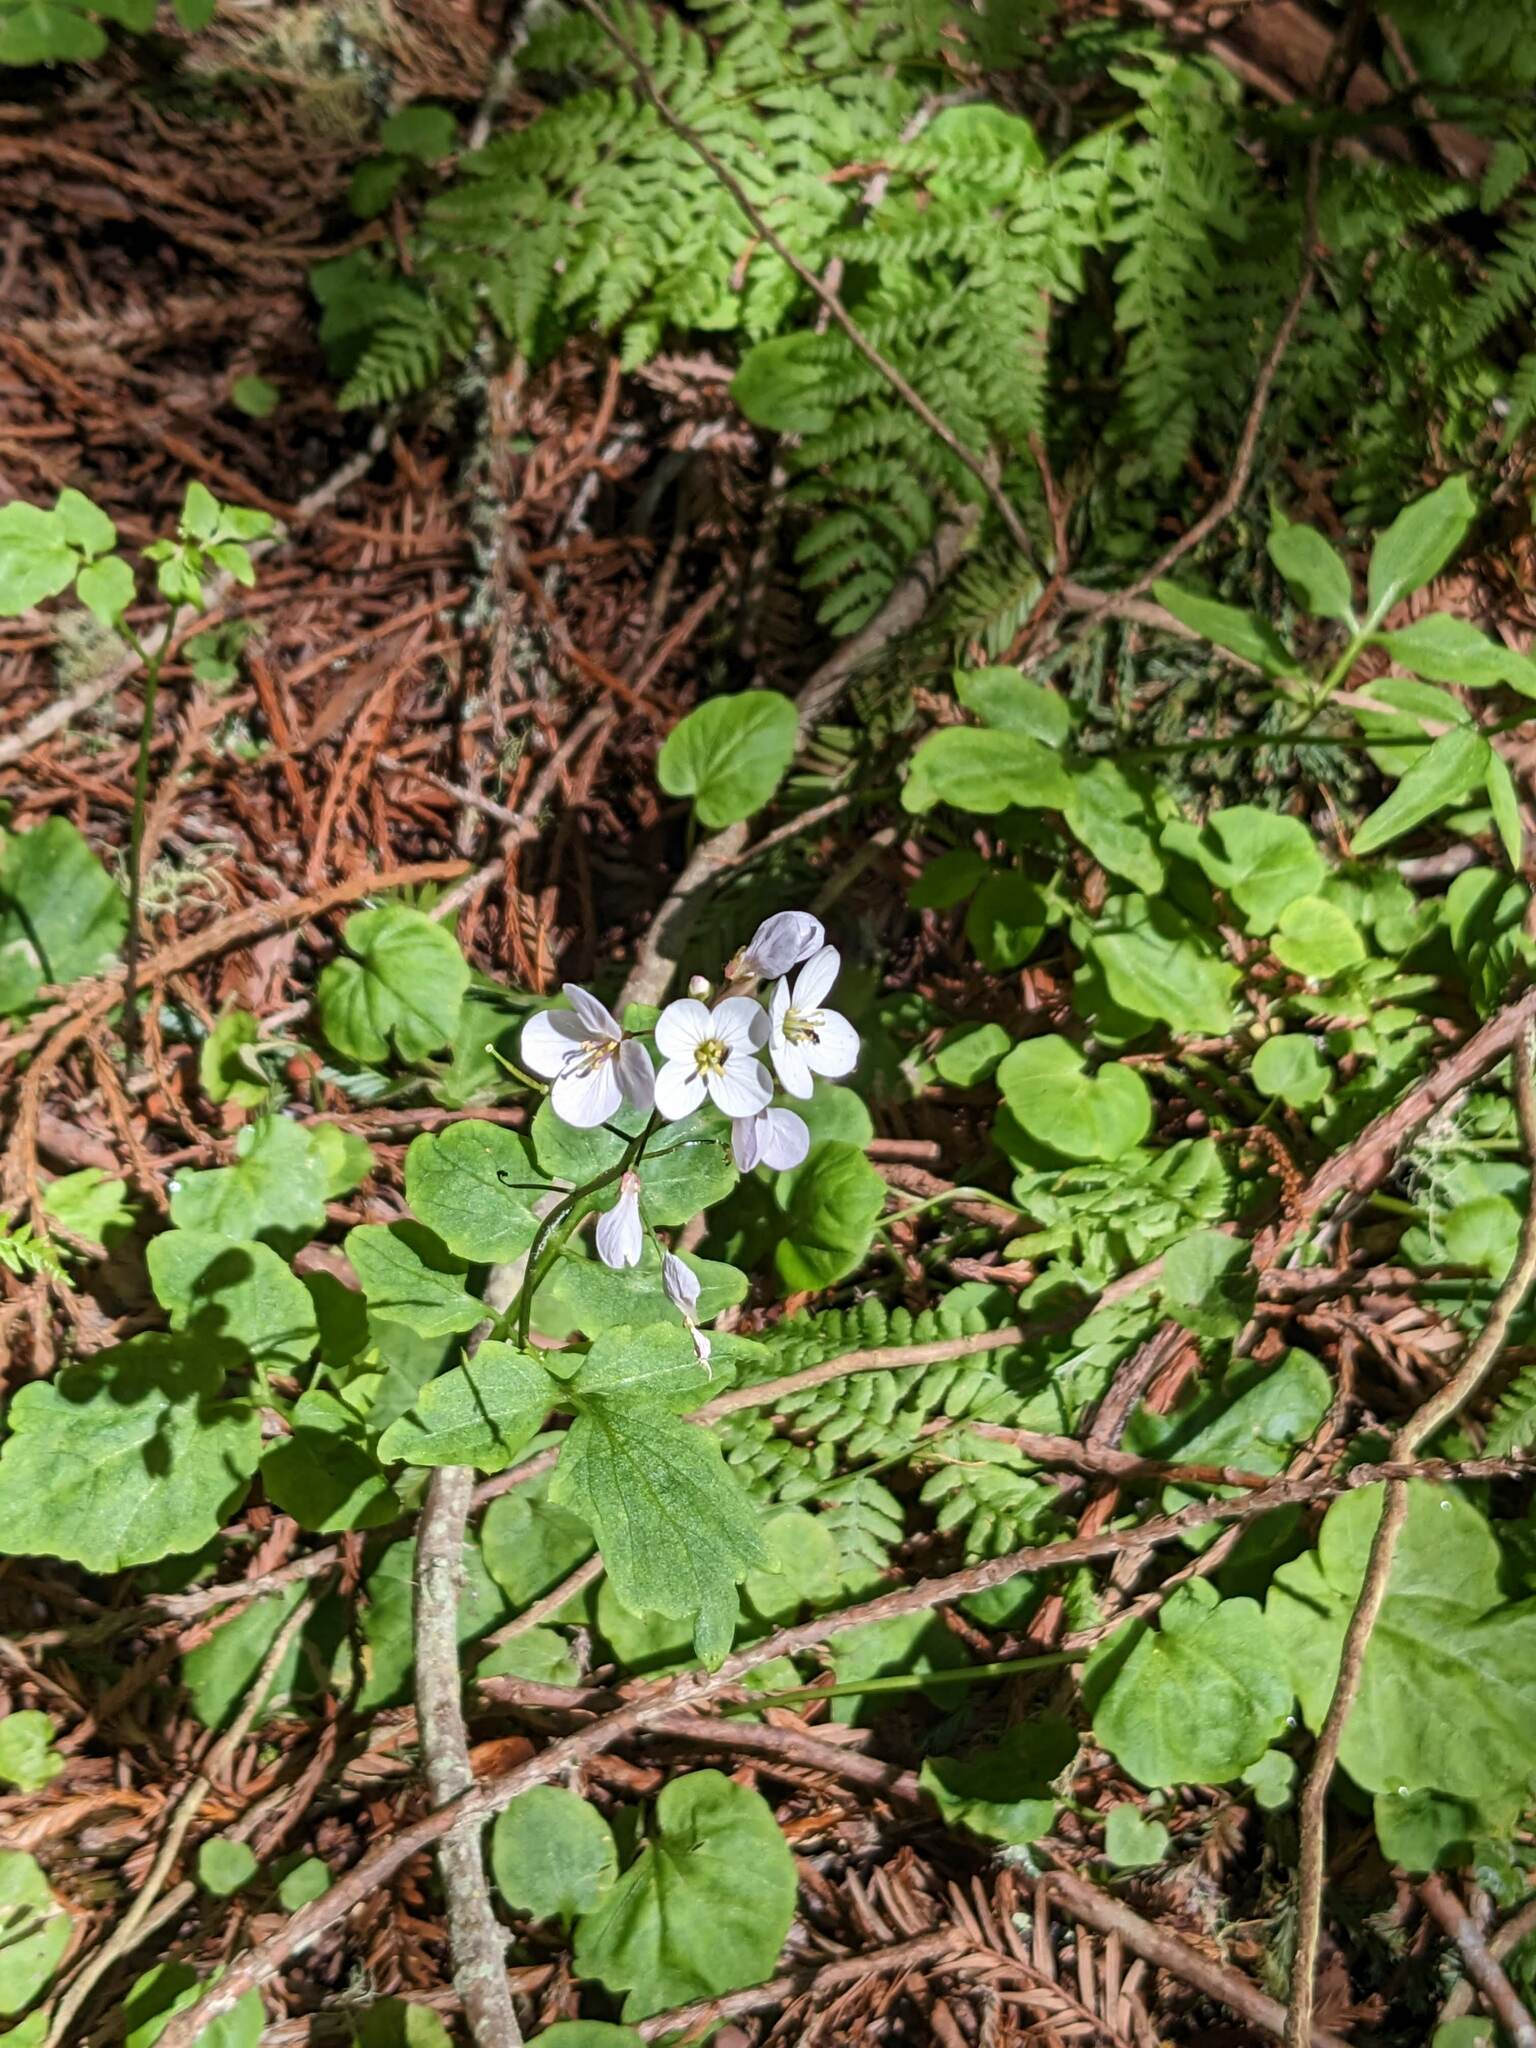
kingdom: Plantae
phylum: Tracheophyta
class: Magnoliopsida
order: Brassicales
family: Brassicaceae
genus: Cardamine
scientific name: Cardamine californica
